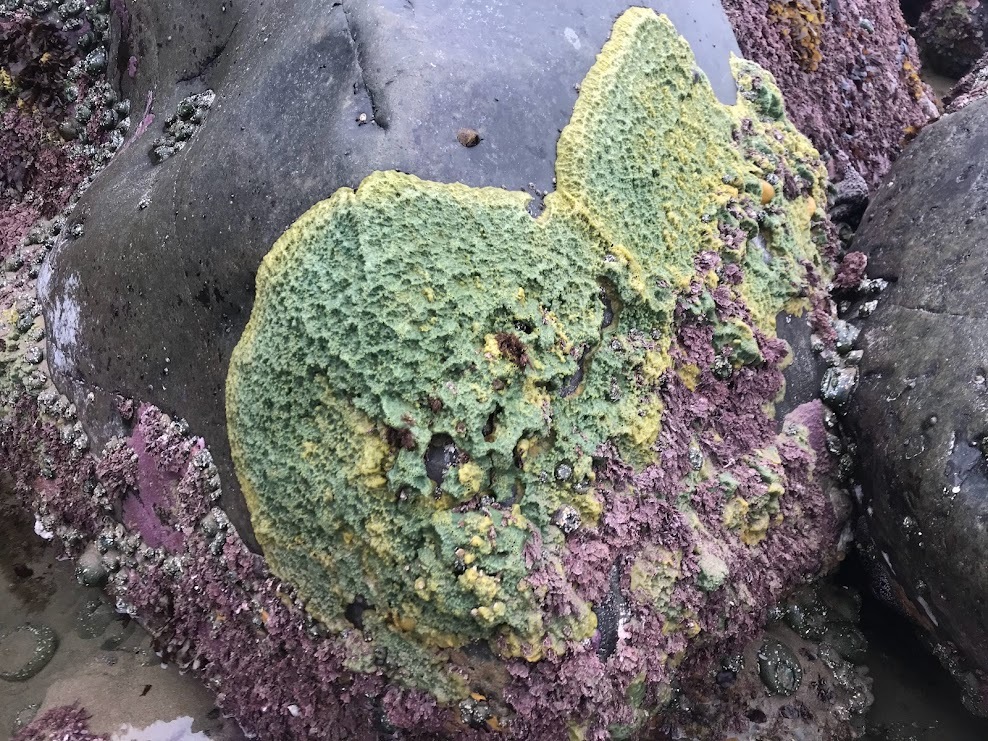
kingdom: Animalia
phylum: Porifera
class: Demospongiae
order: Suberitida
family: Halichondriidae
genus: Halichondria
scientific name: Halichondria panicea
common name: Breadcrumb sponge
